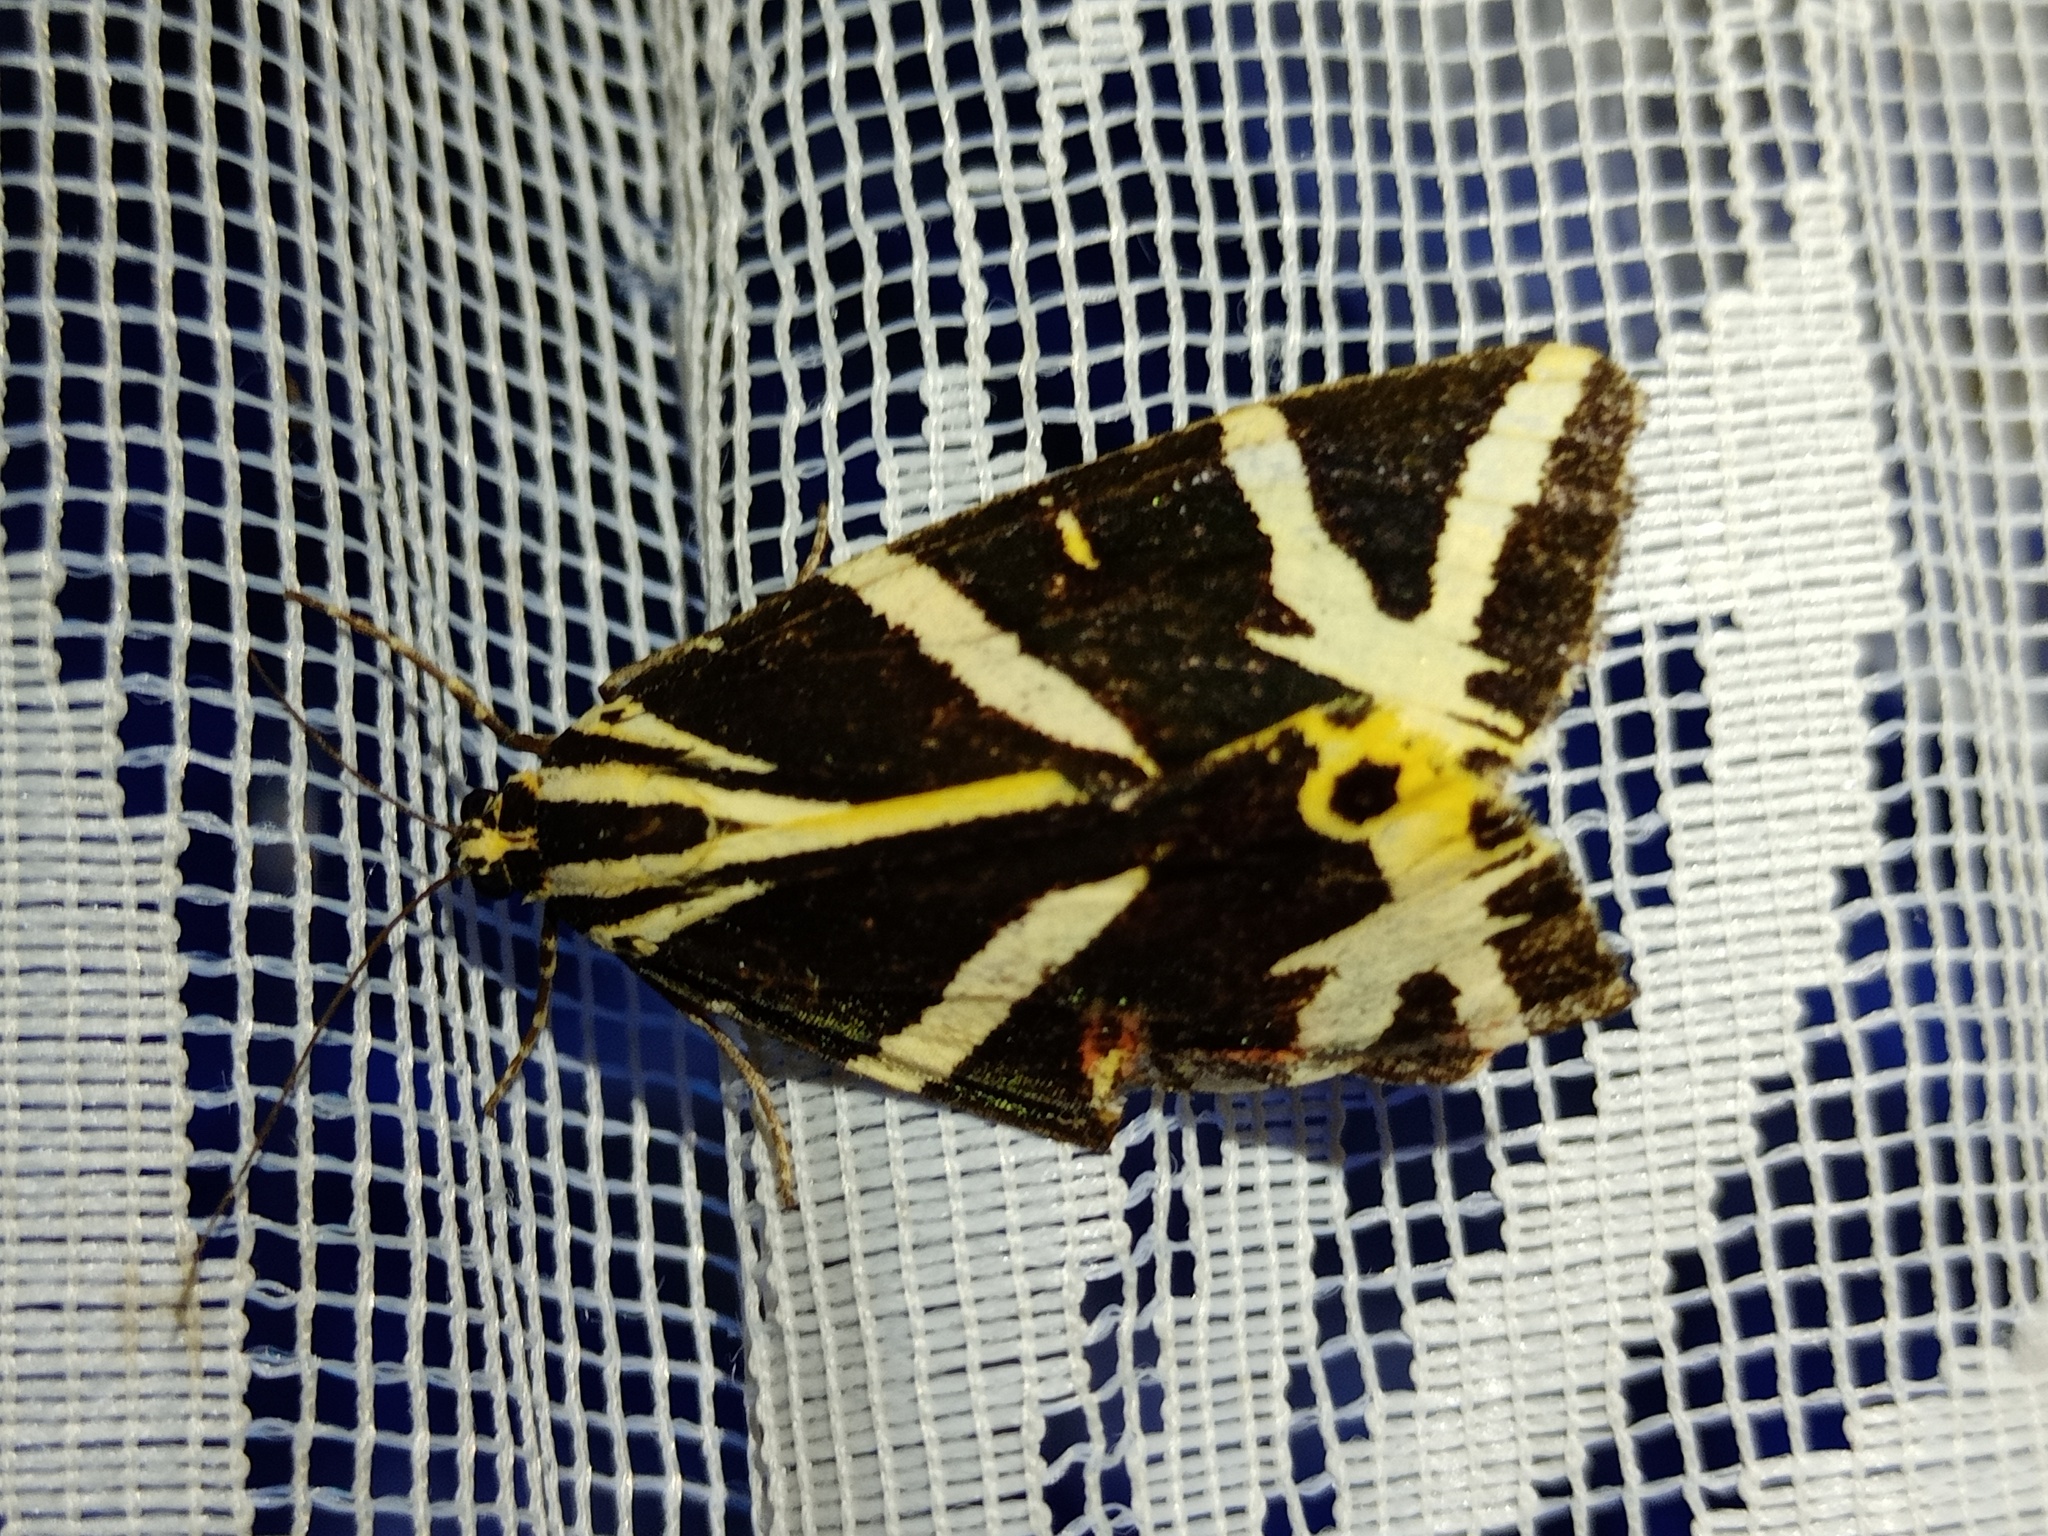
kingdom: Animalia
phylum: Arthropoda
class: Insecta
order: Lepidoptera
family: Erebidae
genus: Euplagia
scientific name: Euplagia quadripunctaria
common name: Jersey tiger
